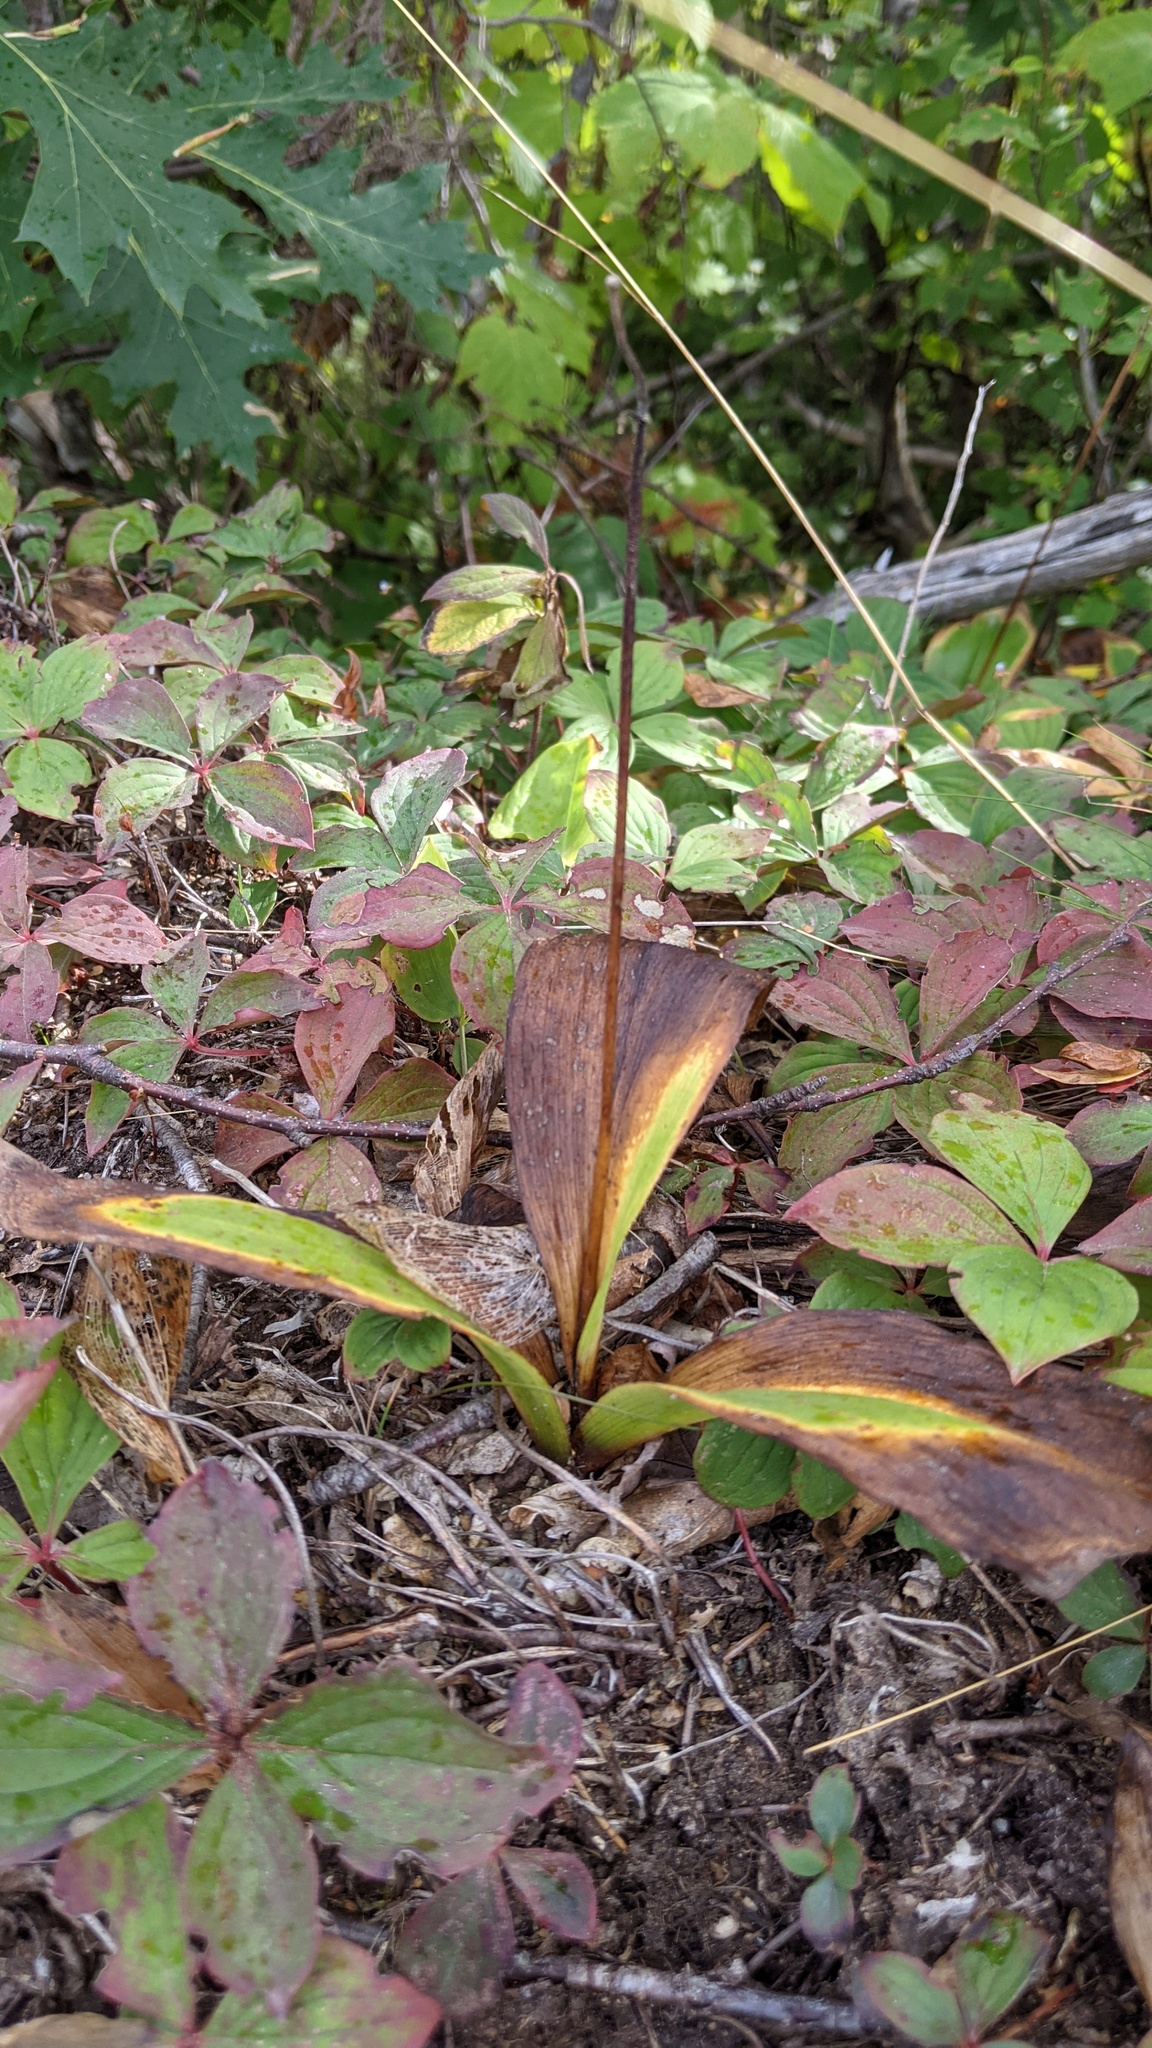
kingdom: Plantae
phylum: Tracheophyta
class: Liliopsida
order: Liliales
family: Liliaceae
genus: Clintonia
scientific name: Clintonia borealis
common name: Yellow clintonia
